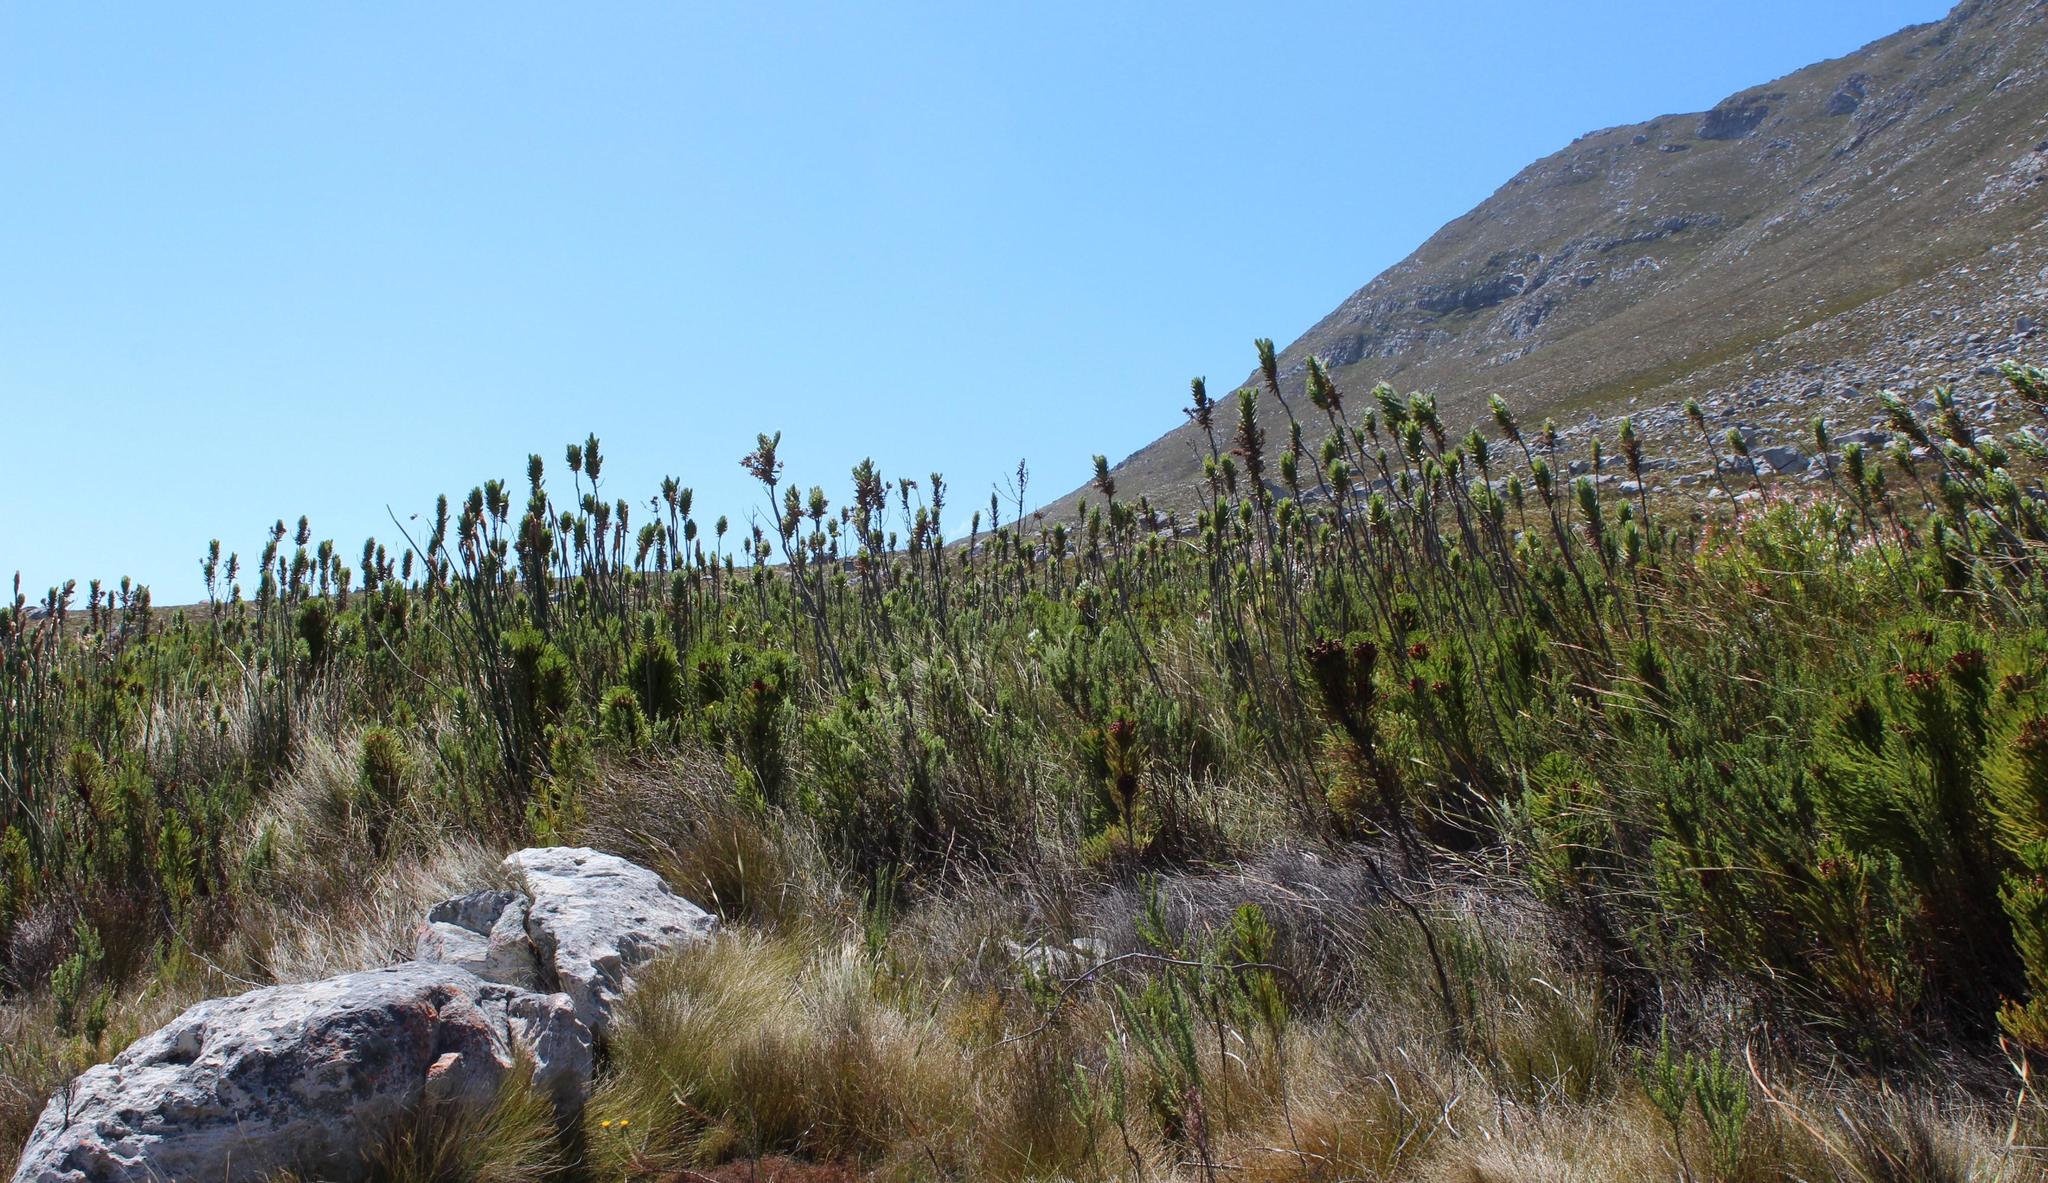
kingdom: Plantae
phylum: Tracheophyta
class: Magnoliopsida
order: Asterales
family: Asteraceae
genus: Osmitopsis
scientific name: Osmitopsis asteriscoides
